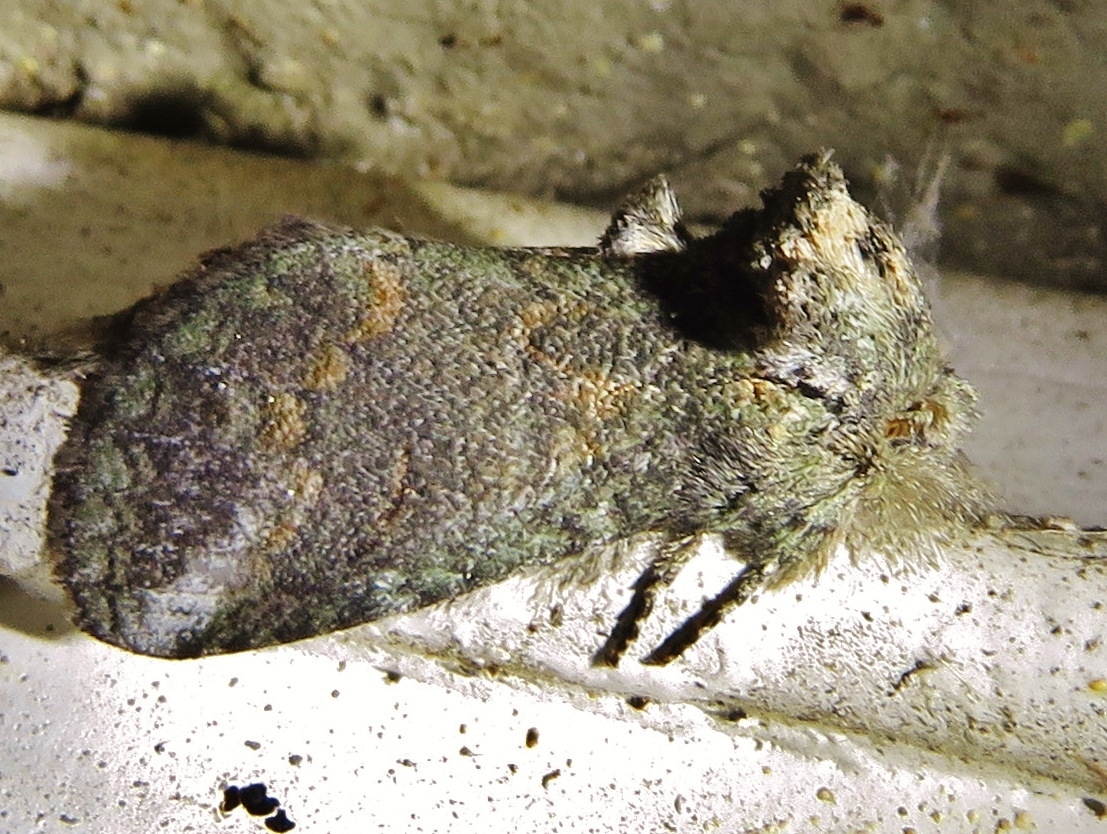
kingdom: Animalia
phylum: Arthropoda
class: Insecta
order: Lepidoptera
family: Notodontidae
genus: Rifargia
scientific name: Rifargia
